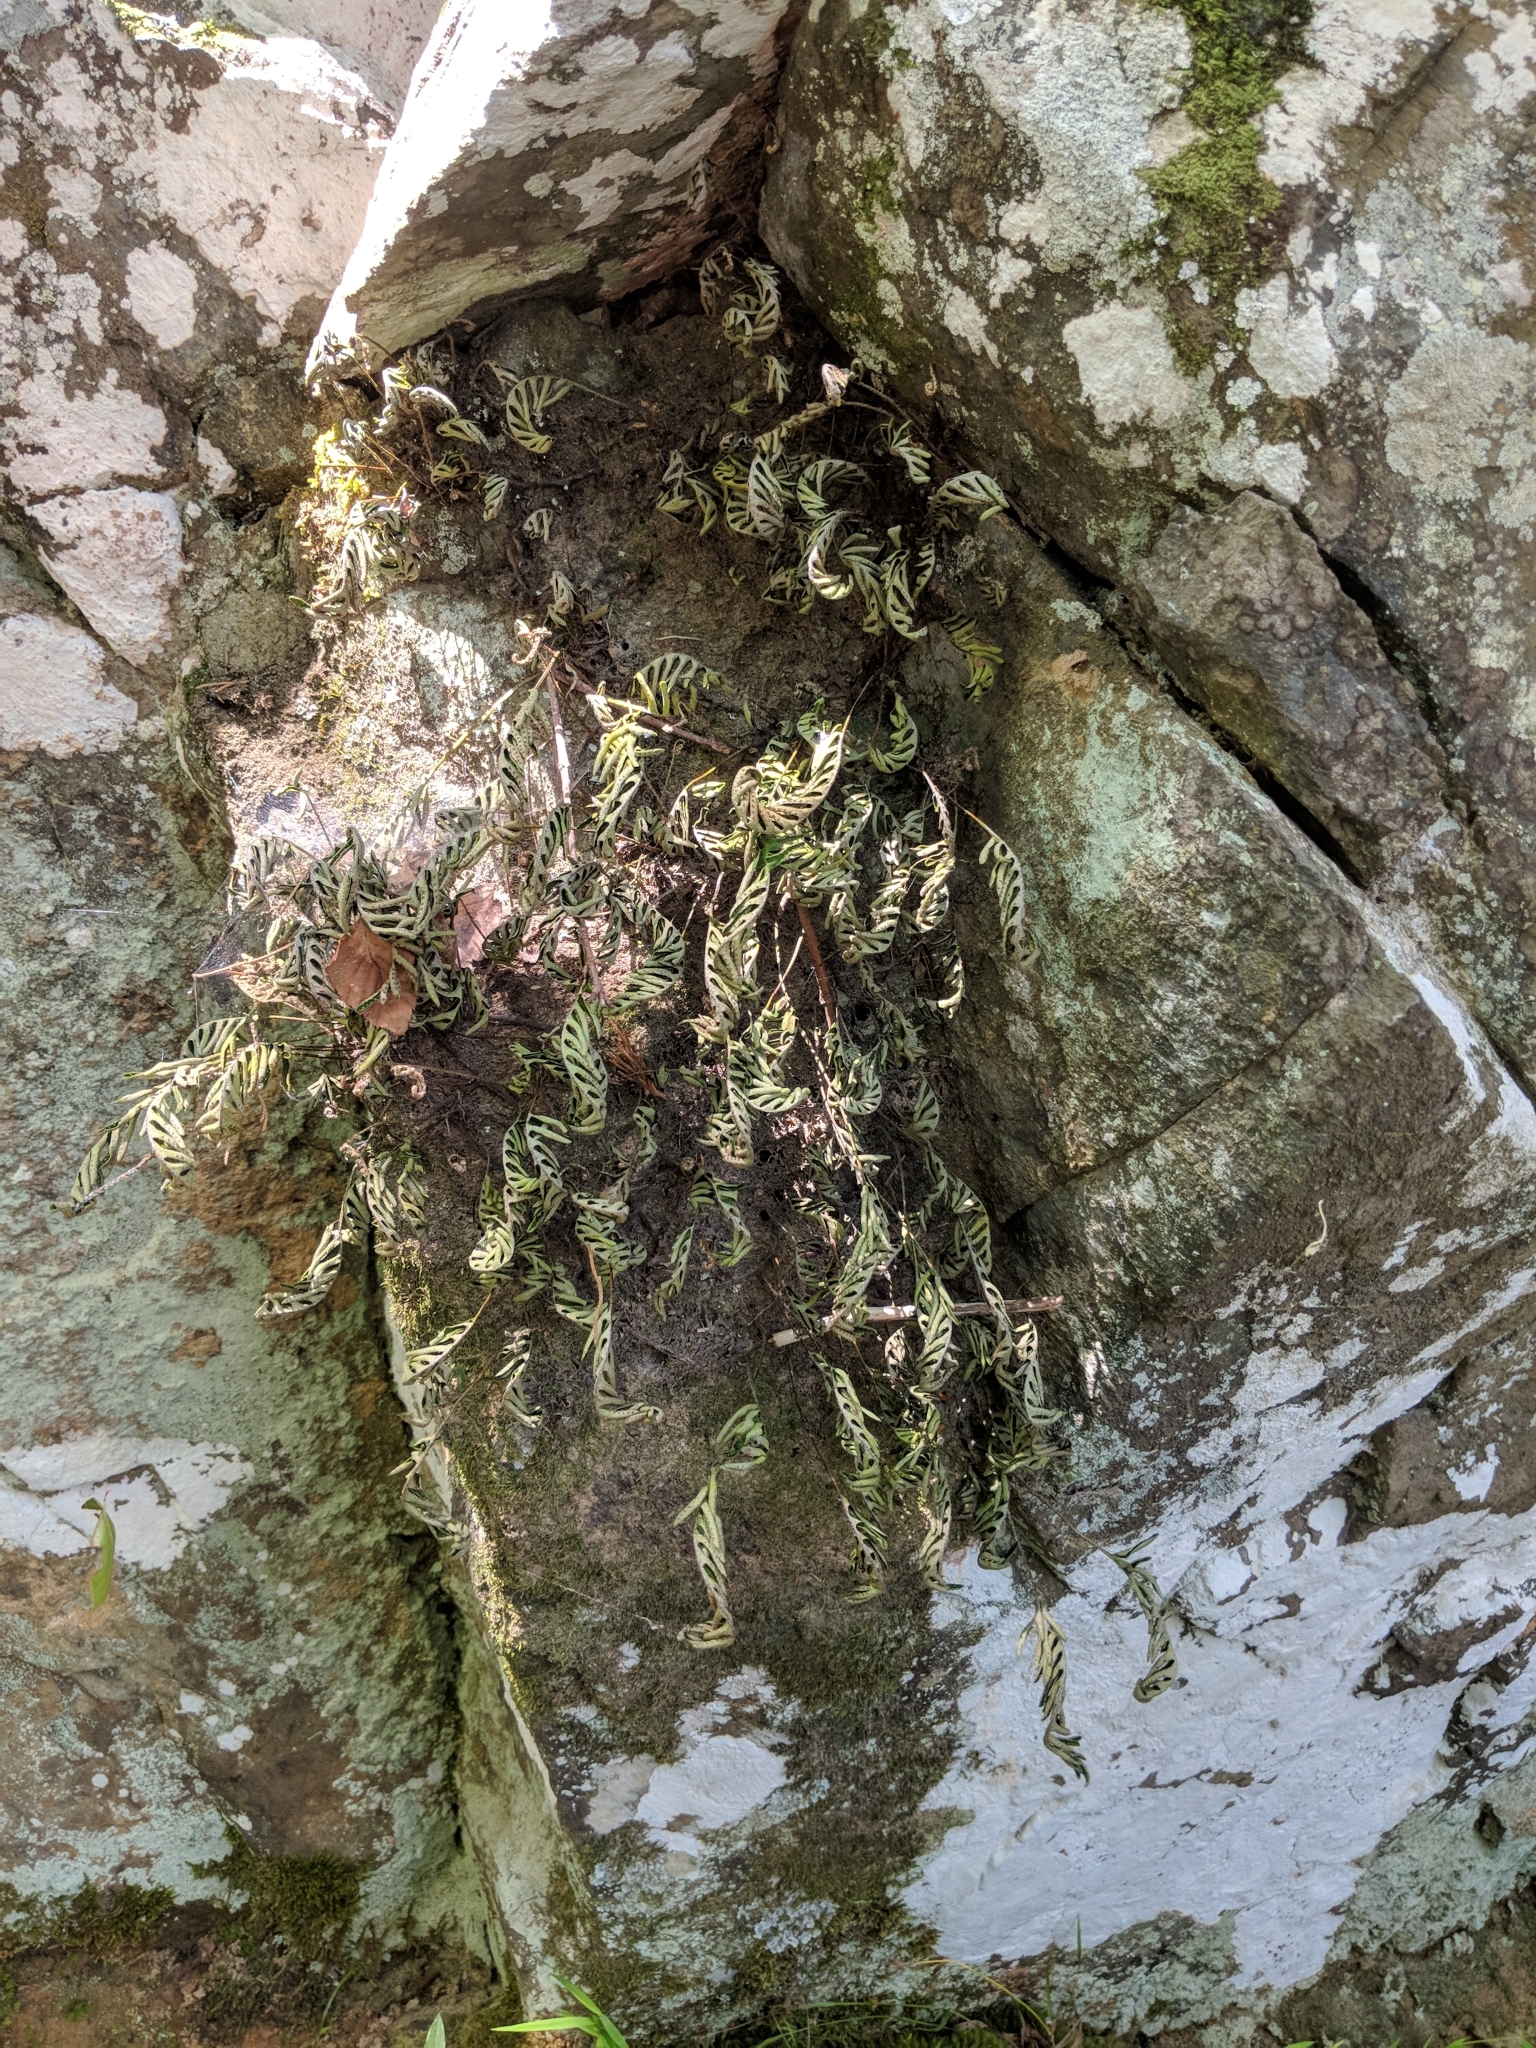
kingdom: Plantae
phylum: Tracheophyta
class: Polypodiopsida
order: Polypodiales
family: Polypodiaceae
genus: Pleopeltis
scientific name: Pleopeltis michauxiana
